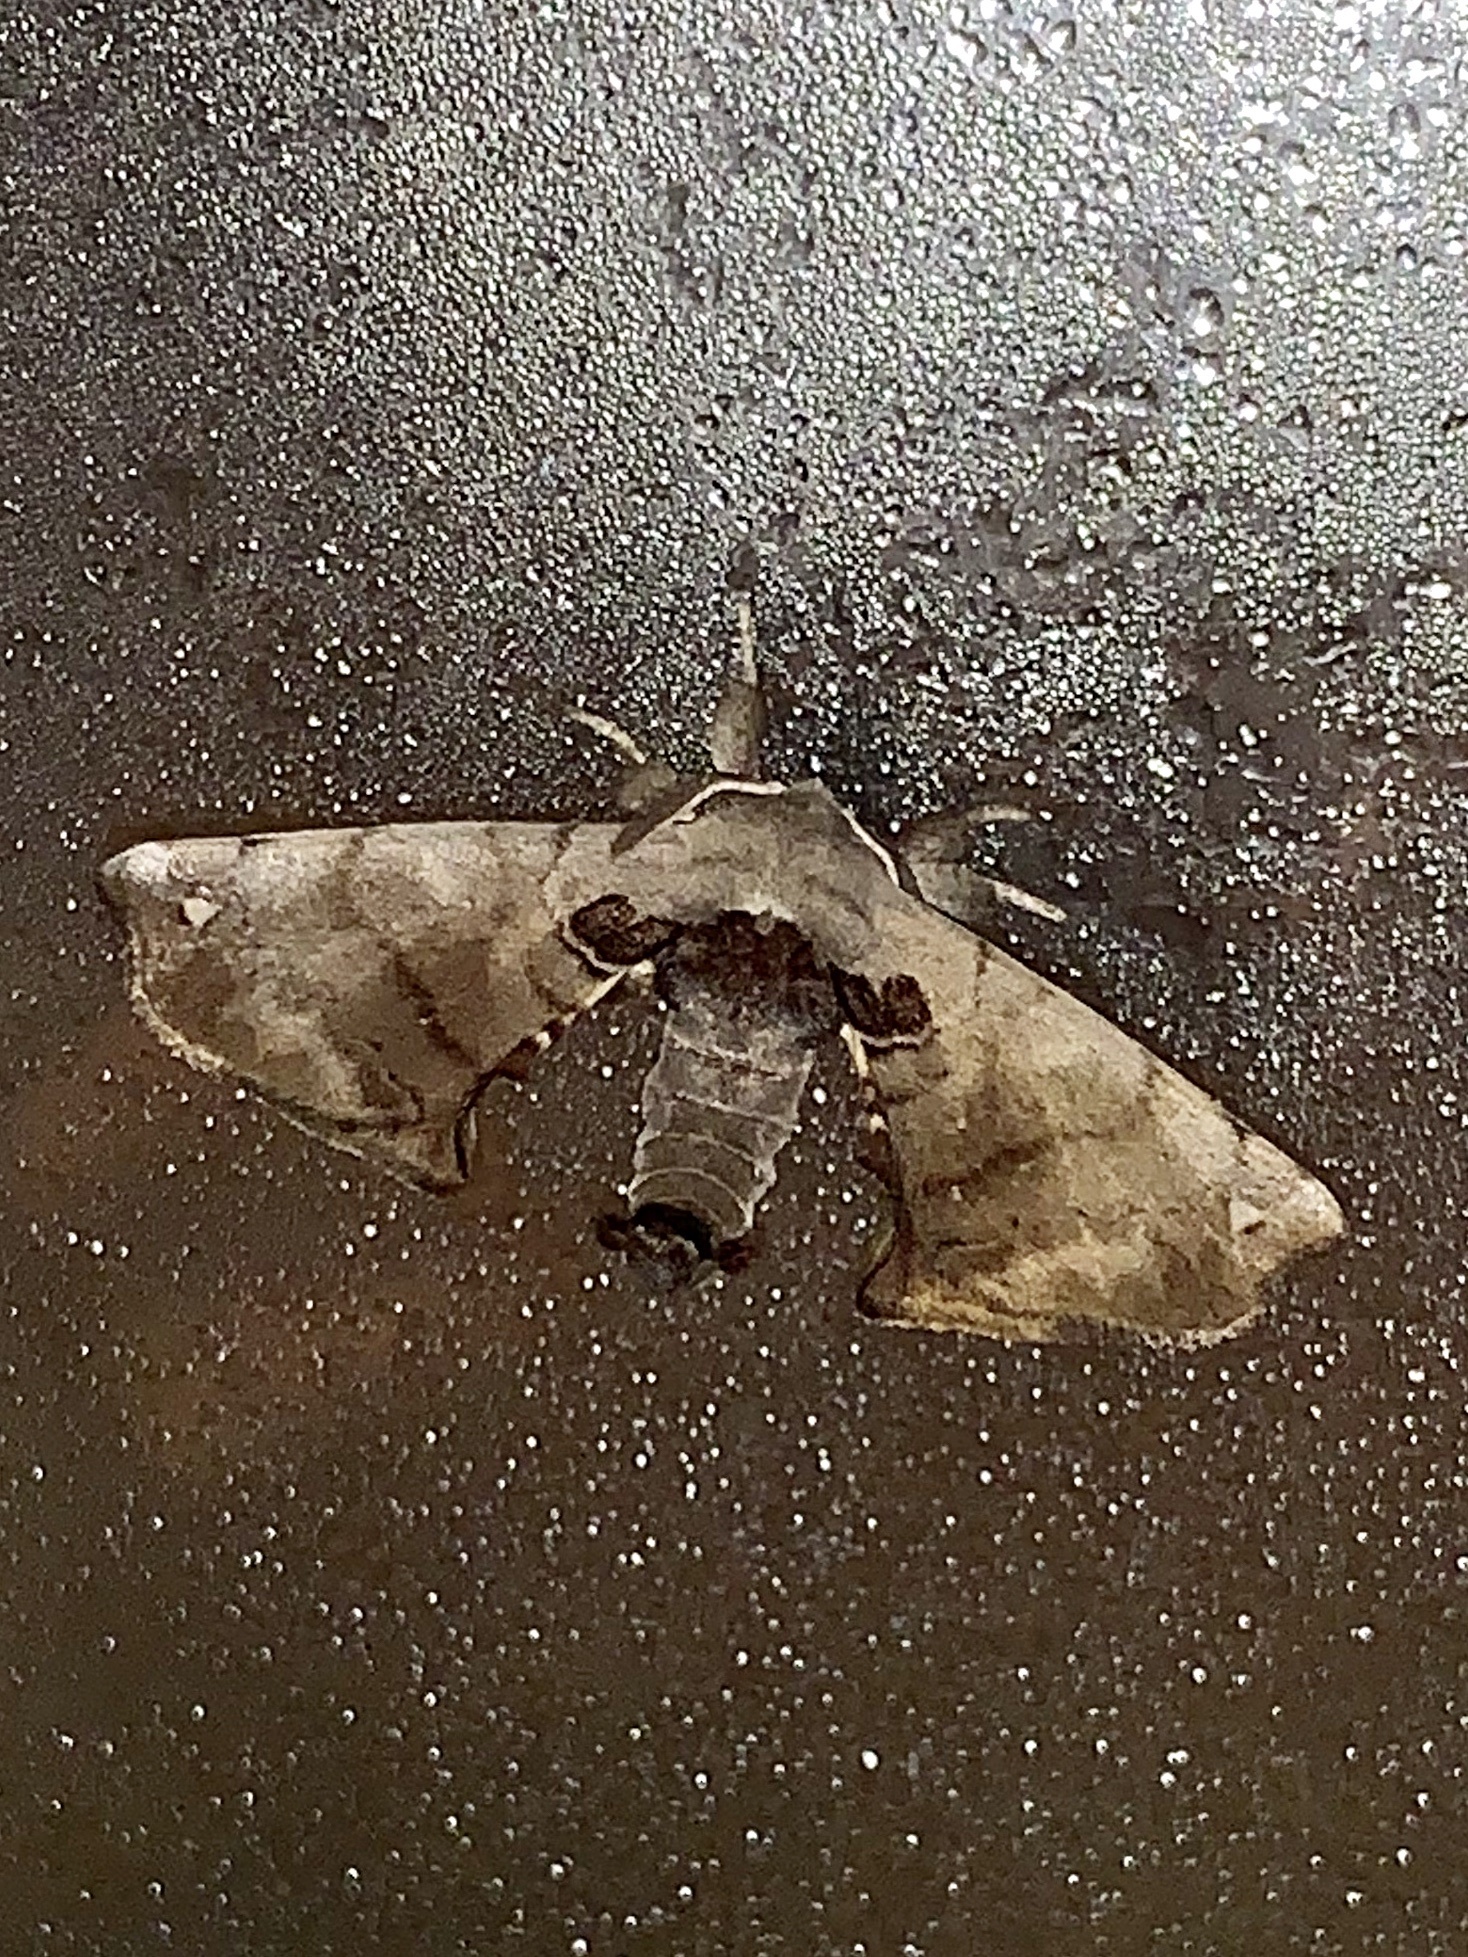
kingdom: Animalia
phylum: Arthropoda
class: Insecta
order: Lepidoptera
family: Apatelodidae
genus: Hygrochroa
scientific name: Hygrochroa Apatelodes torrefacta
